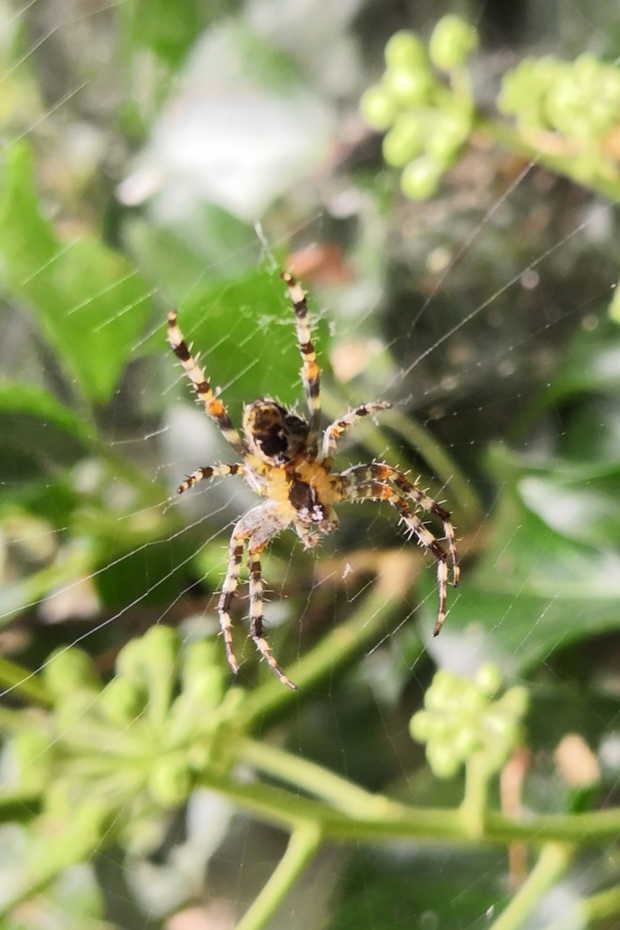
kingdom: Animalia
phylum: Arthropoda
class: Arachnida
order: Araneae
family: Araneidae
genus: Araneus
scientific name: Araneus diadematus
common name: Cross orbweaver
